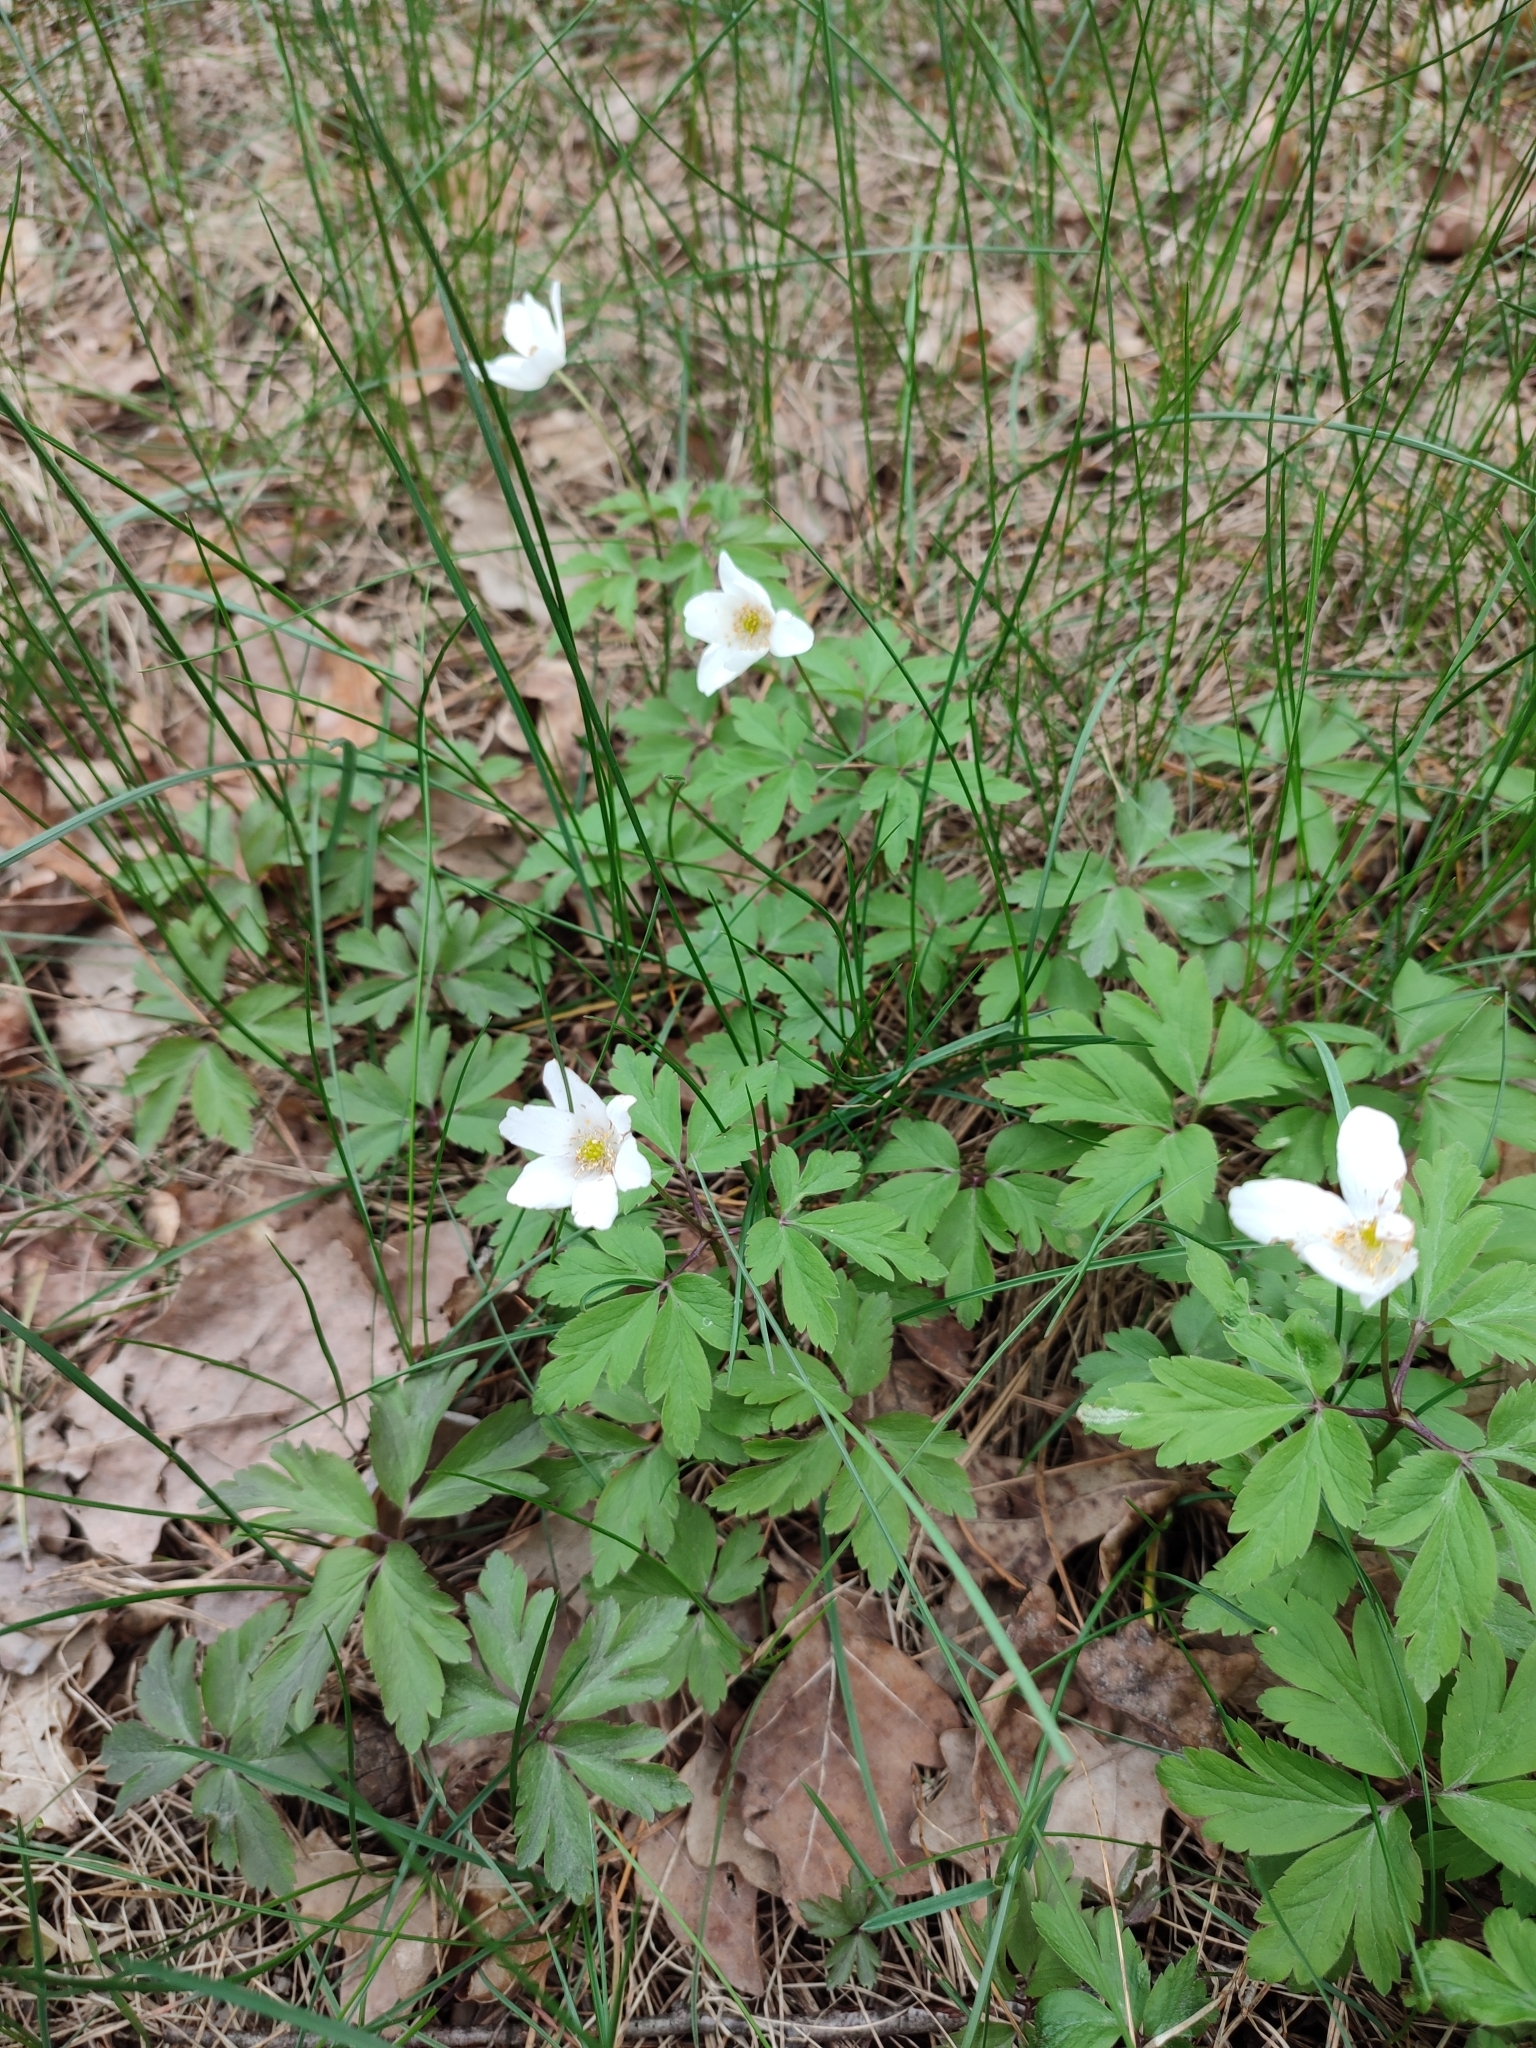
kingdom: Plantae
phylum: Tracheophyta
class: Magnoliopsida
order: Ranunculales
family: Ranunculaceae
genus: Anemone
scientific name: Anemone nemorosa
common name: Wood anemone
